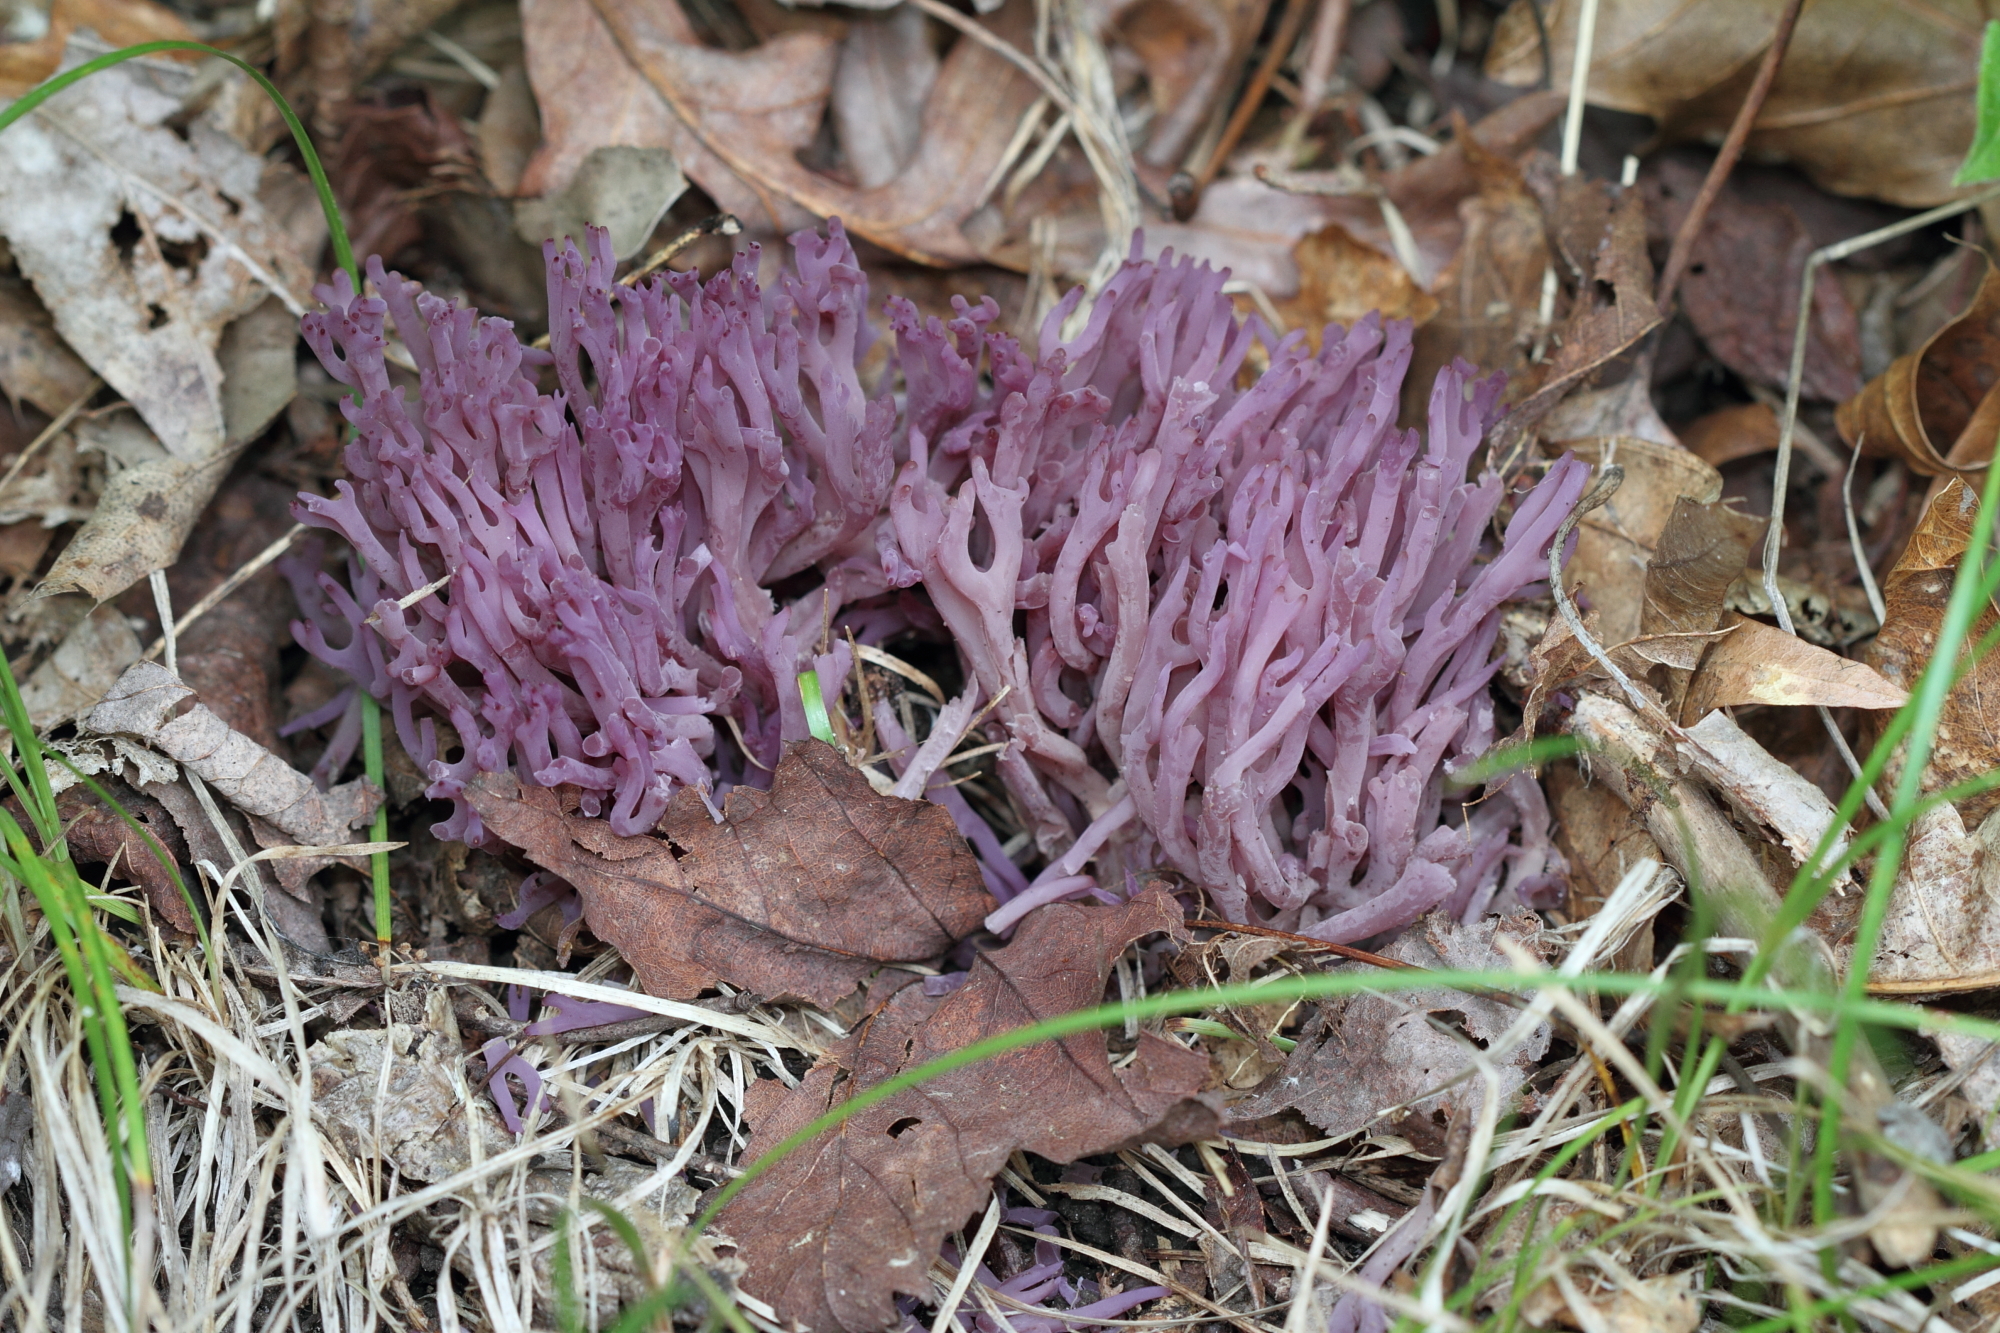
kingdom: Fungi
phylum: Basidiomycota
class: Agaricomycetes
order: Agaricales
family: Clavariaceae
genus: Clavaria
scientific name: Clavaria zollingeri
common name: Violet coral
